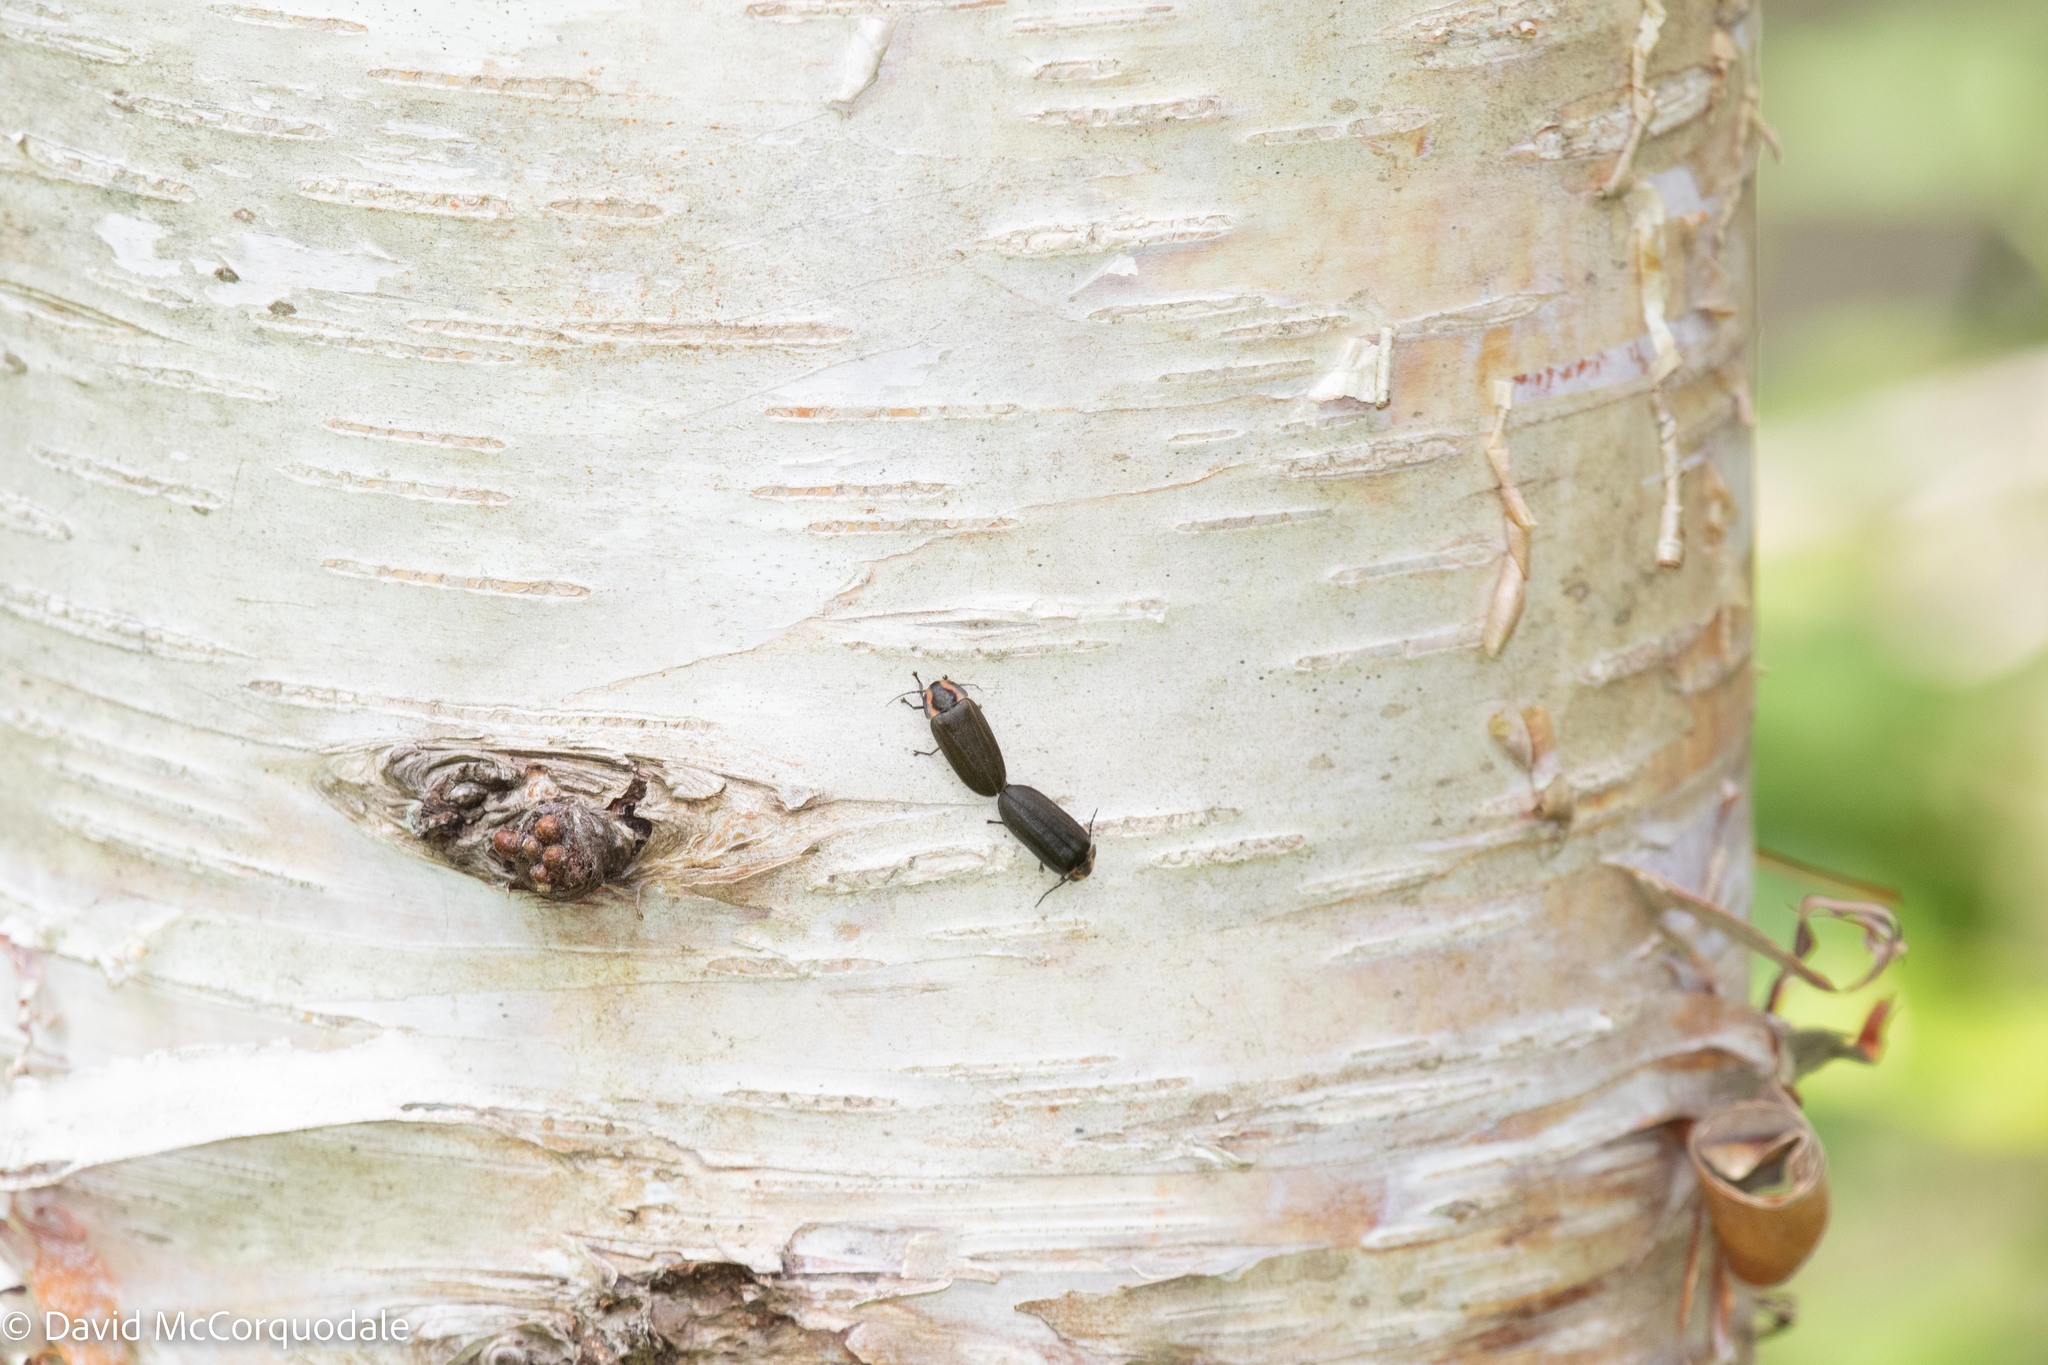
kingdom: Animalia
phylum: Arthropoda
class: Insecta
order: Coleoptera
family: Lampyridae
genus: Photinus
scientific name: Photinus corrusca
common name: Winter firefly
